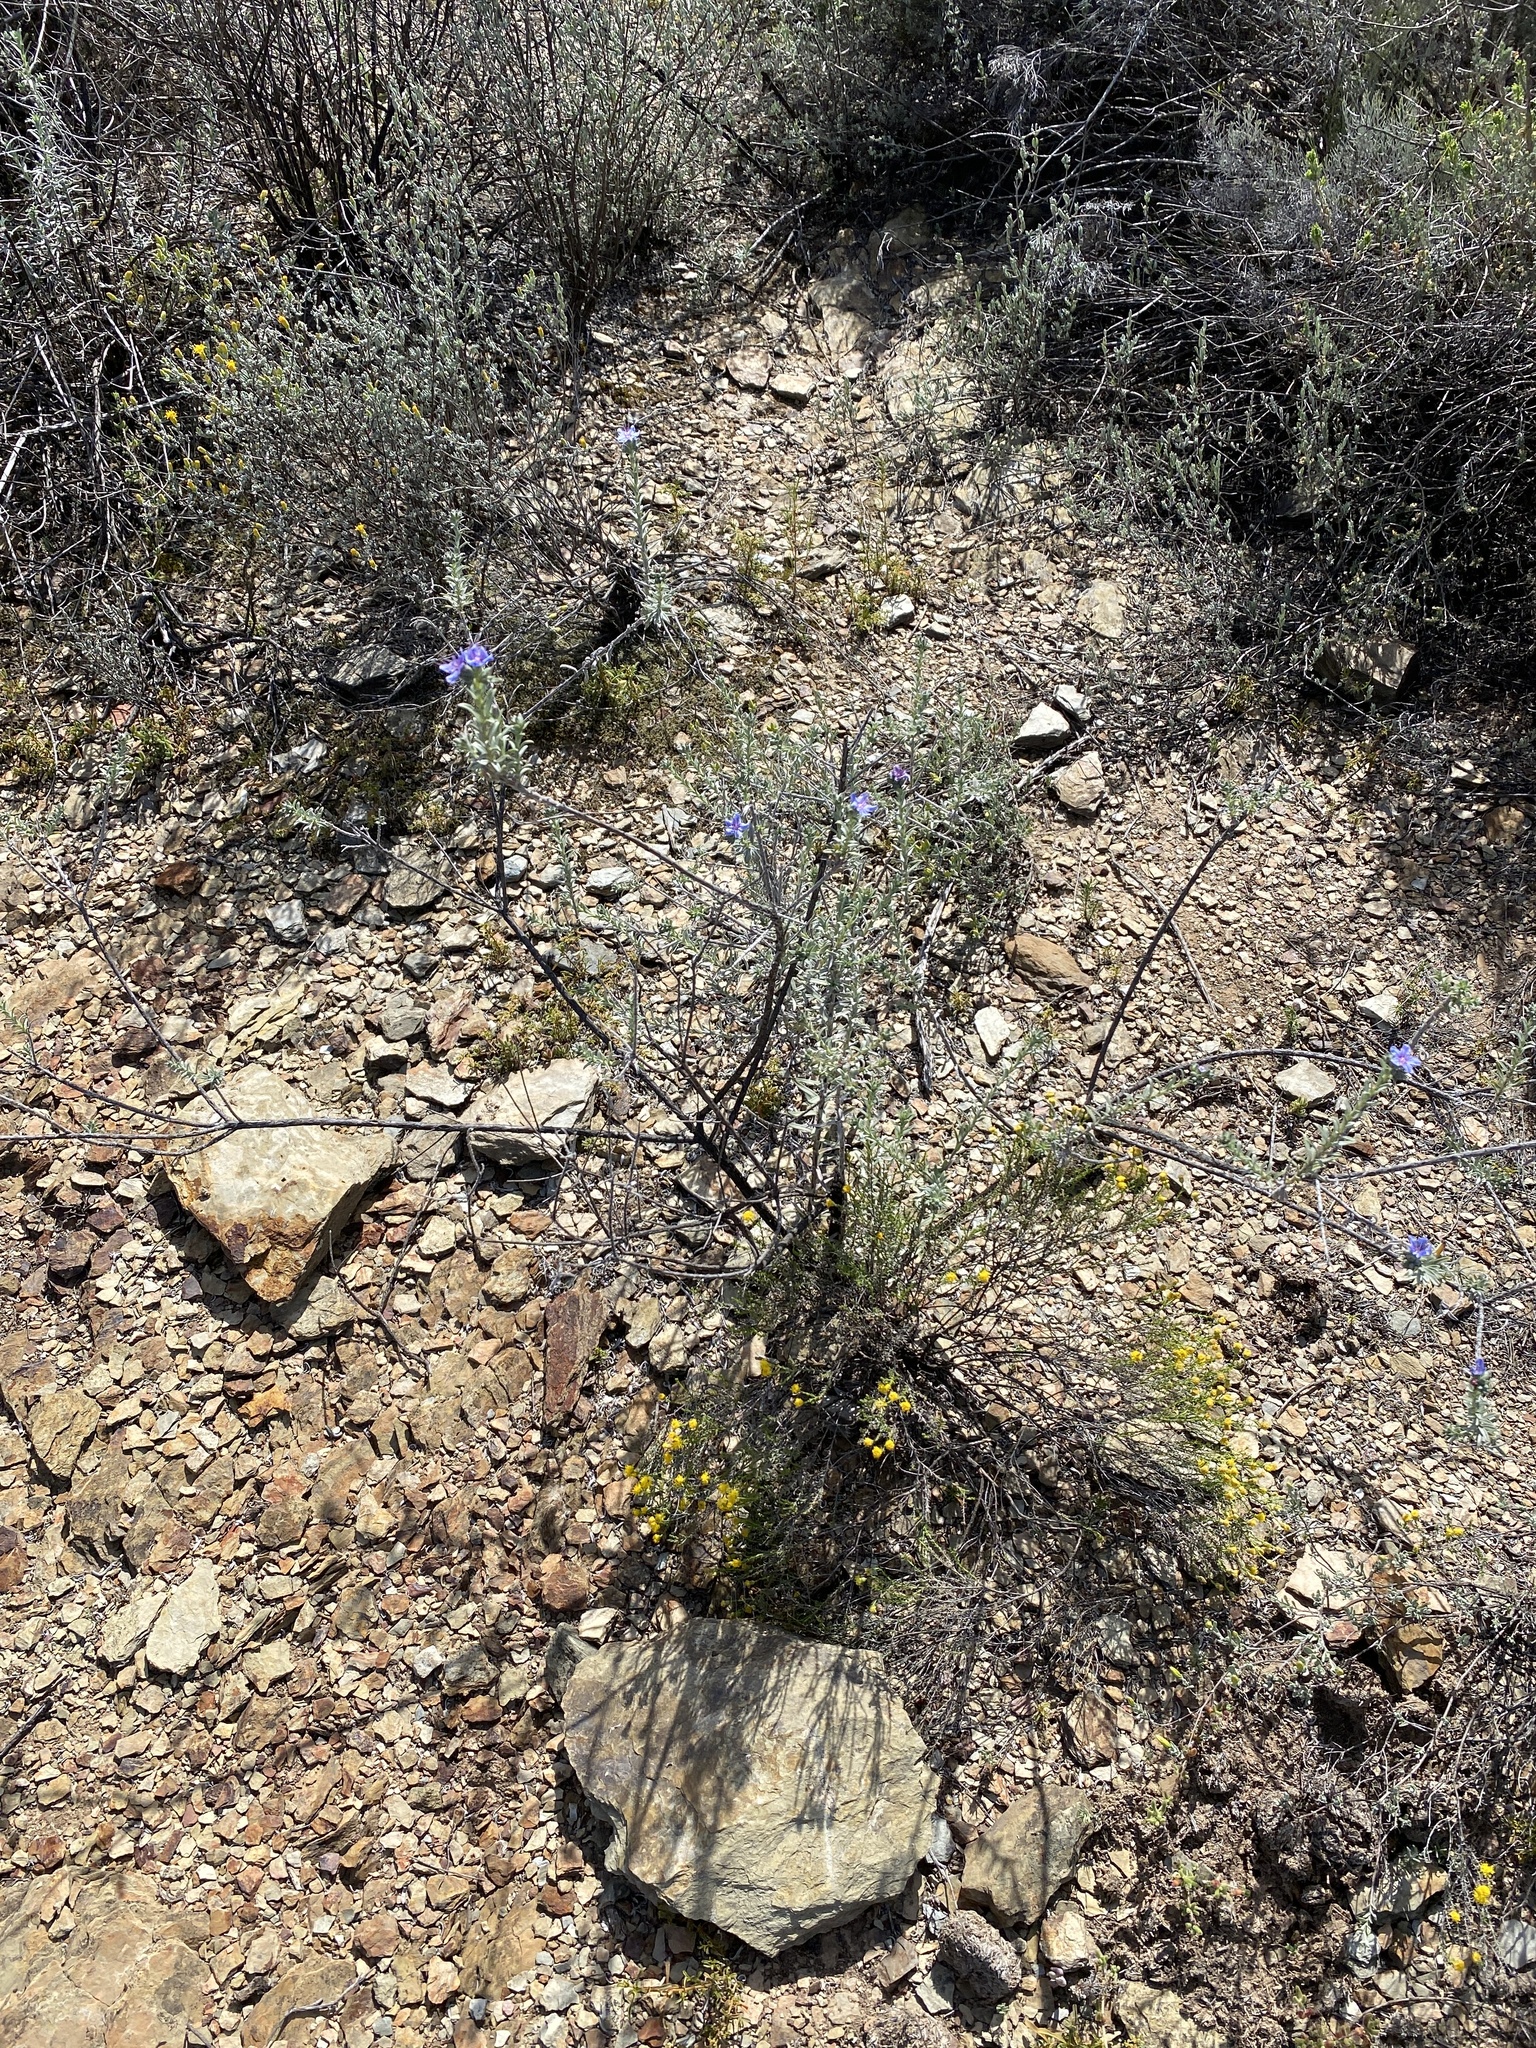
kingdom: Plantae
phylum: Tracheophyta
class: Magnoliopsida
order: Boraginales
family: Boraginaceae
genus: Lobostemon
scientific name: Lobostemon echioides
